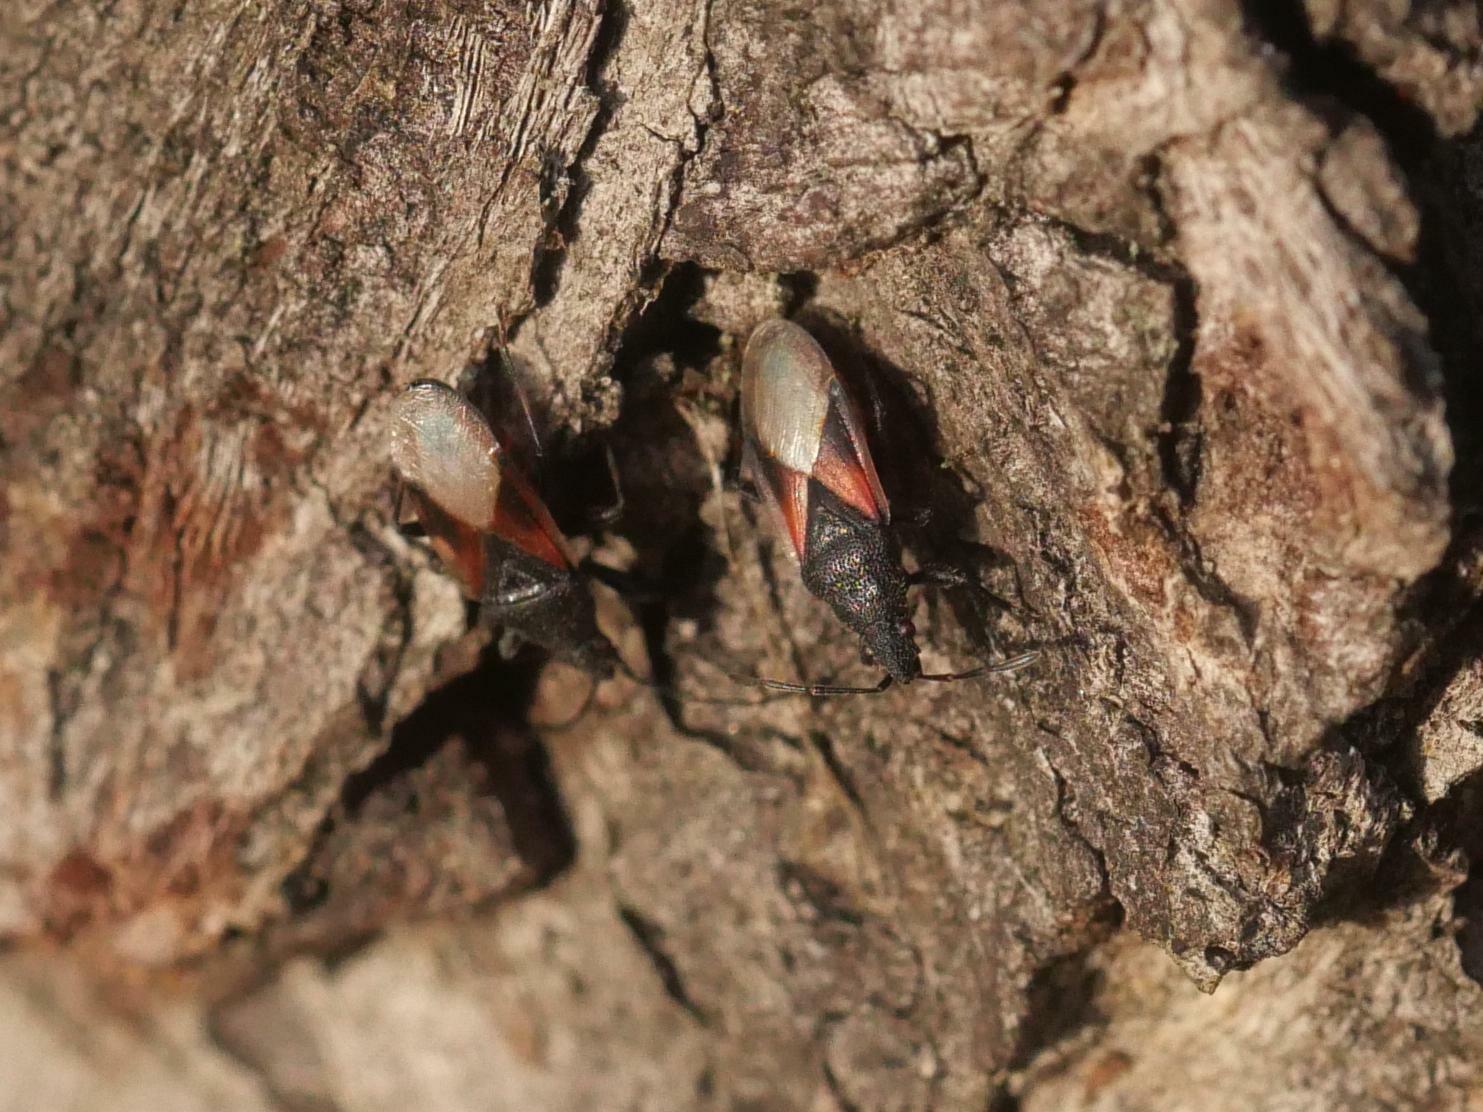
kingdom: Animalia
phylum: Arthropoda
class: Insecta
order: Hemiptera
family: Oxycarenidae
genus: Oxycarenus
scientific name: Oxycarenus lavaterae
